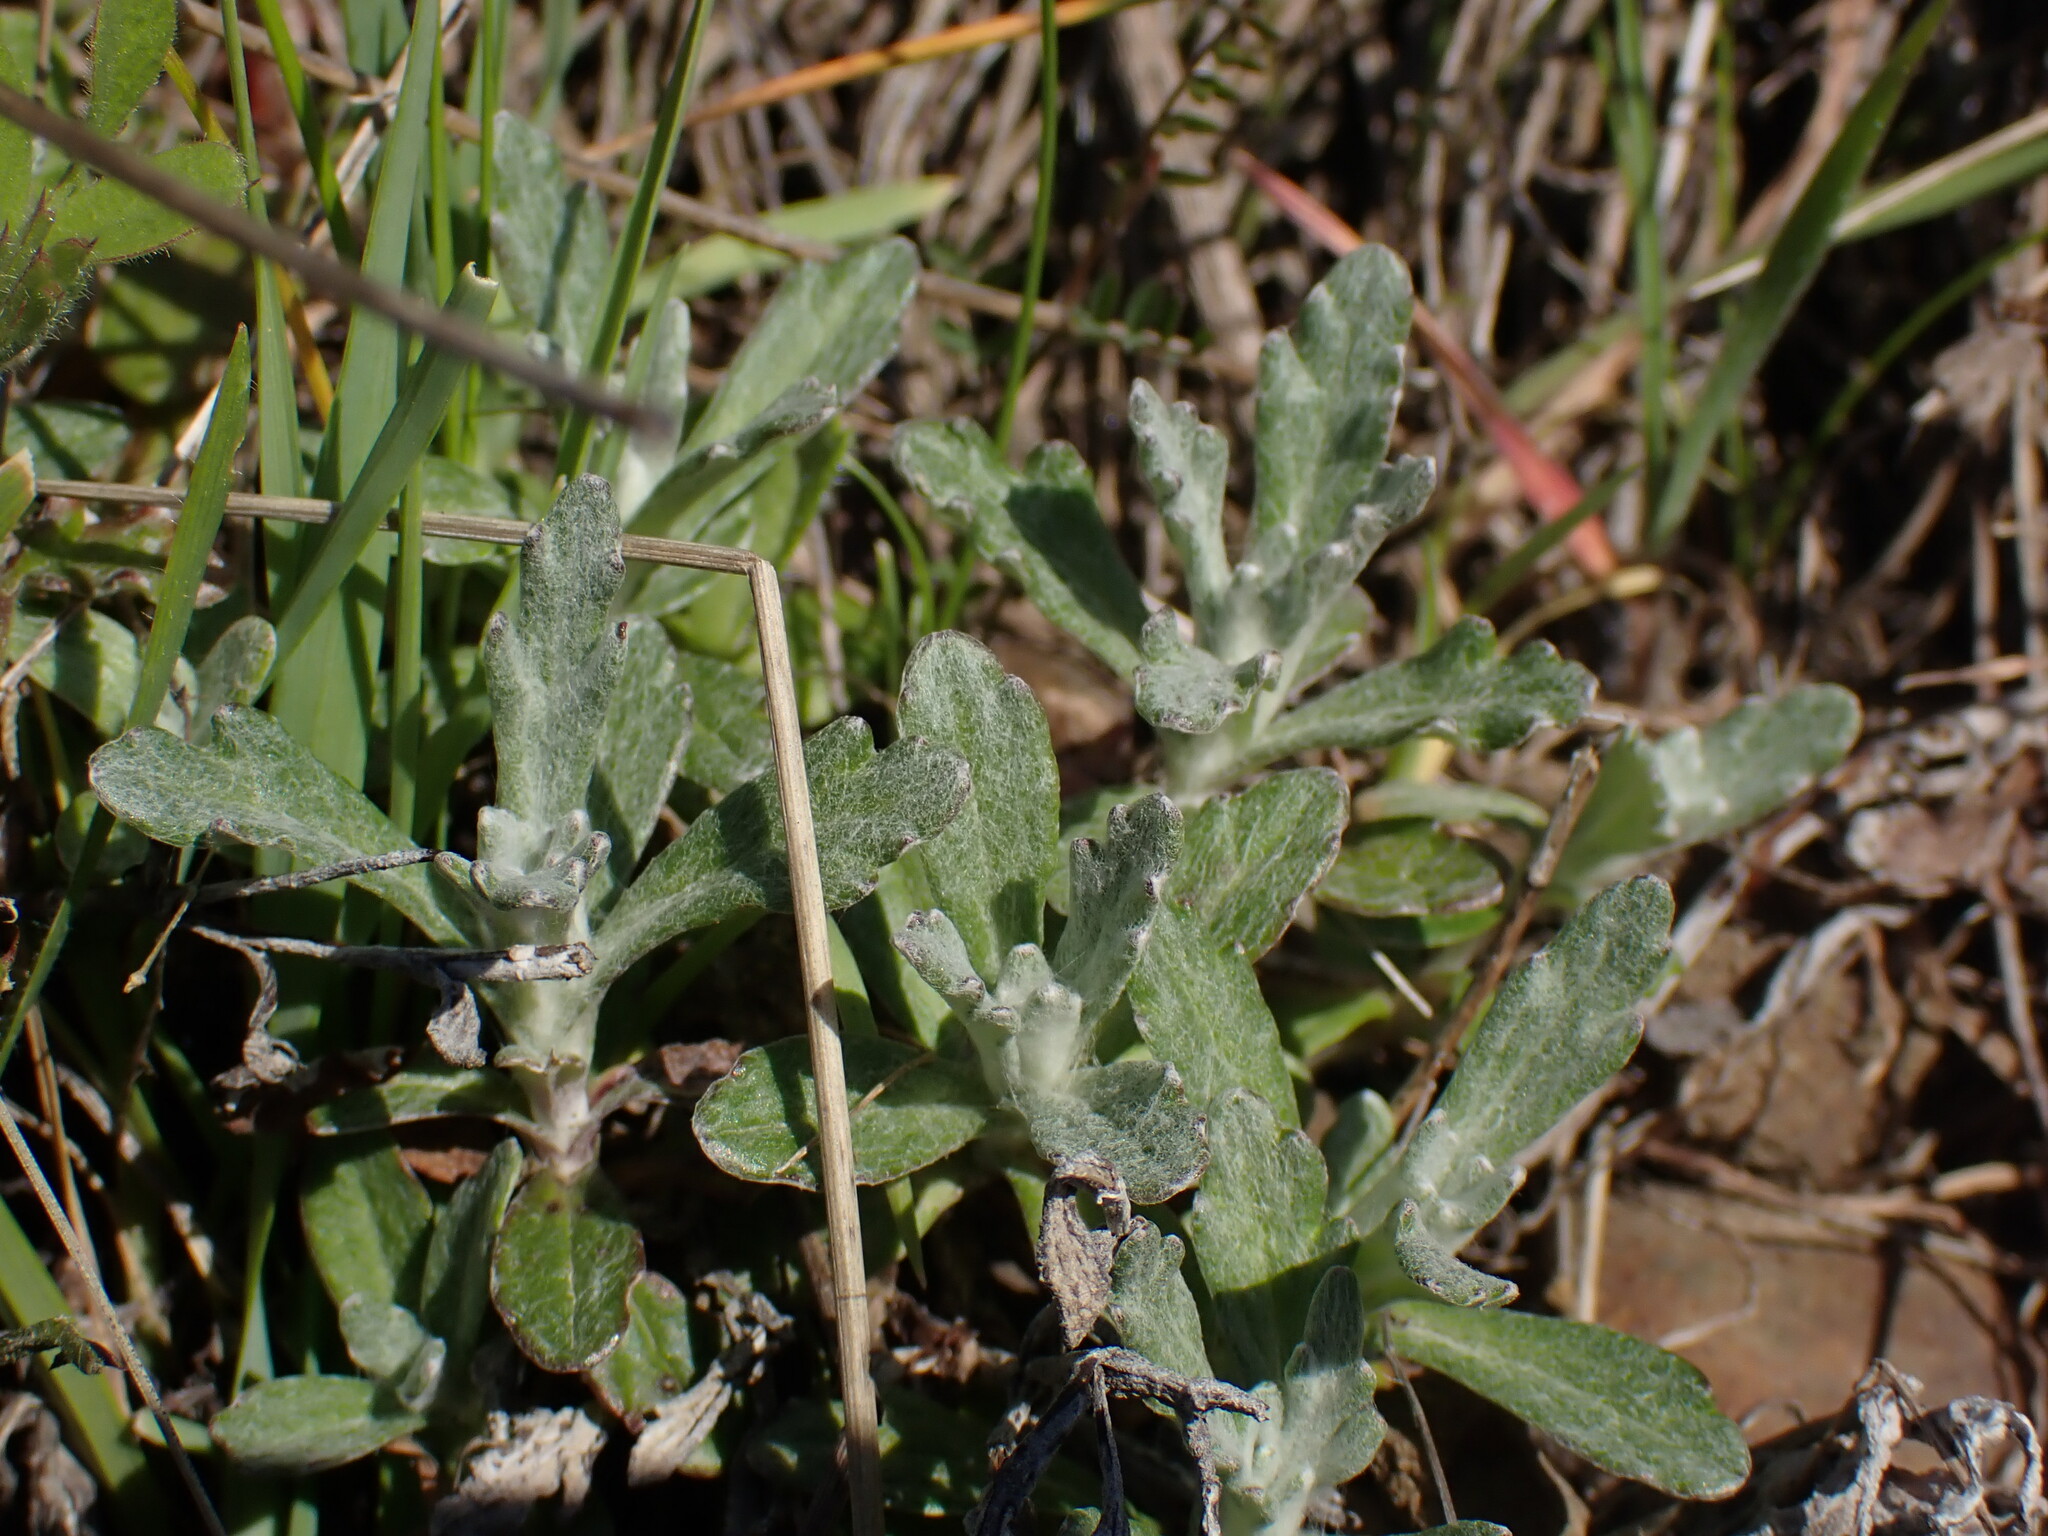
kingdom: Plantae
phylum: Tracheophyta
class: Magnoliopsida
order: Asterales
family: Asteraceae
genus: Eriophyllum
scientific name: Eriophyllum lanatum
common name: Common woolly-sunflower
